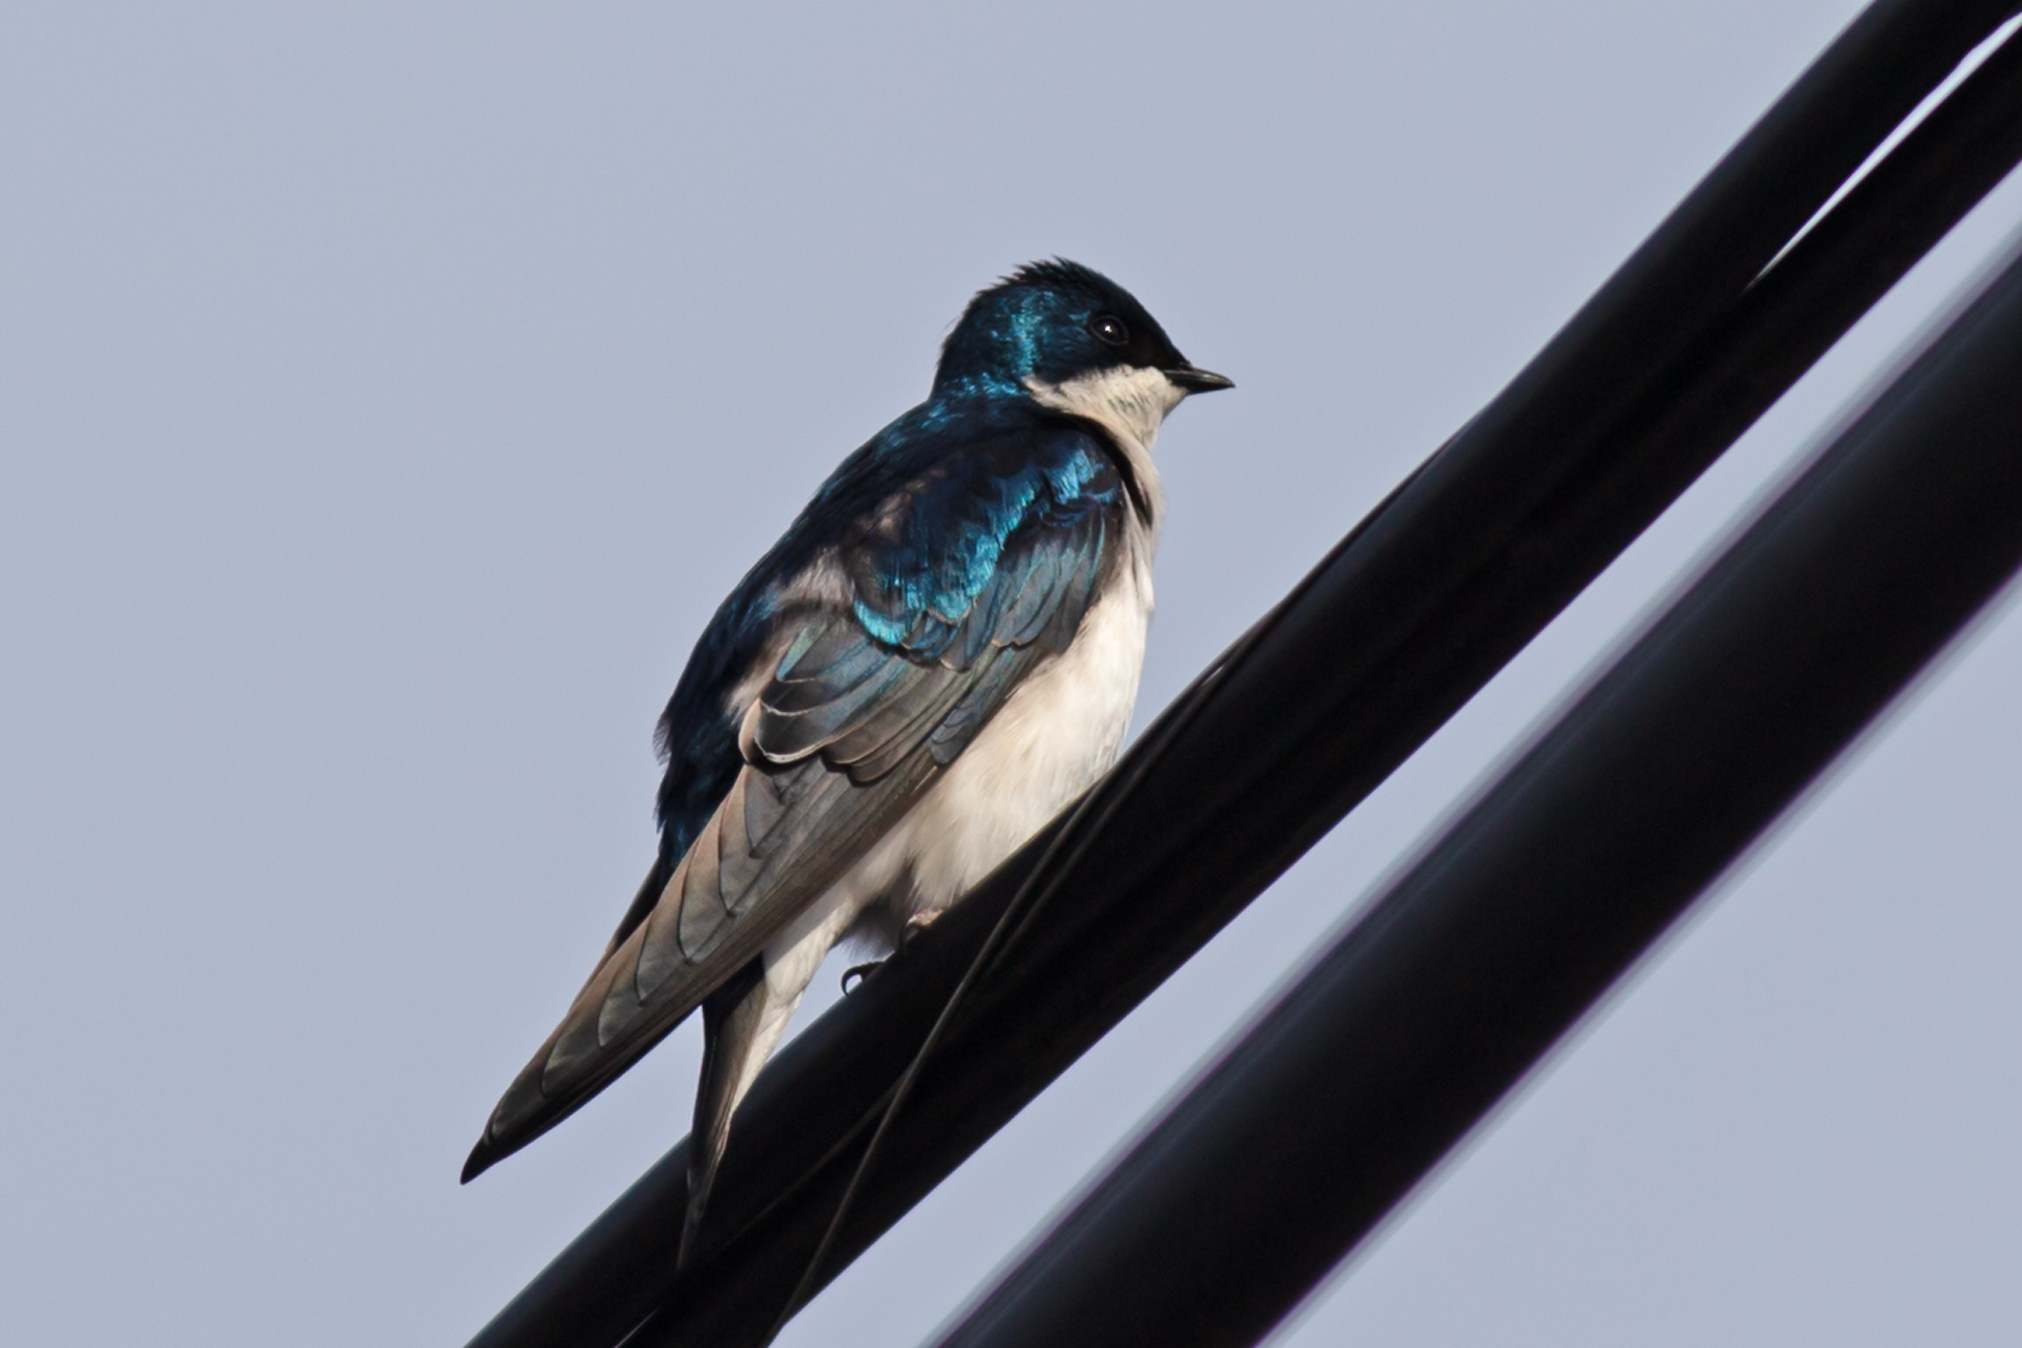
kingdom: Animalia
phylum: Chordata
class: Aves
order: Passeriformes
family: Hirundinidae
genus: Tachycineta
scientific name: Tachycineta bicolor
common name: Tree swallow
